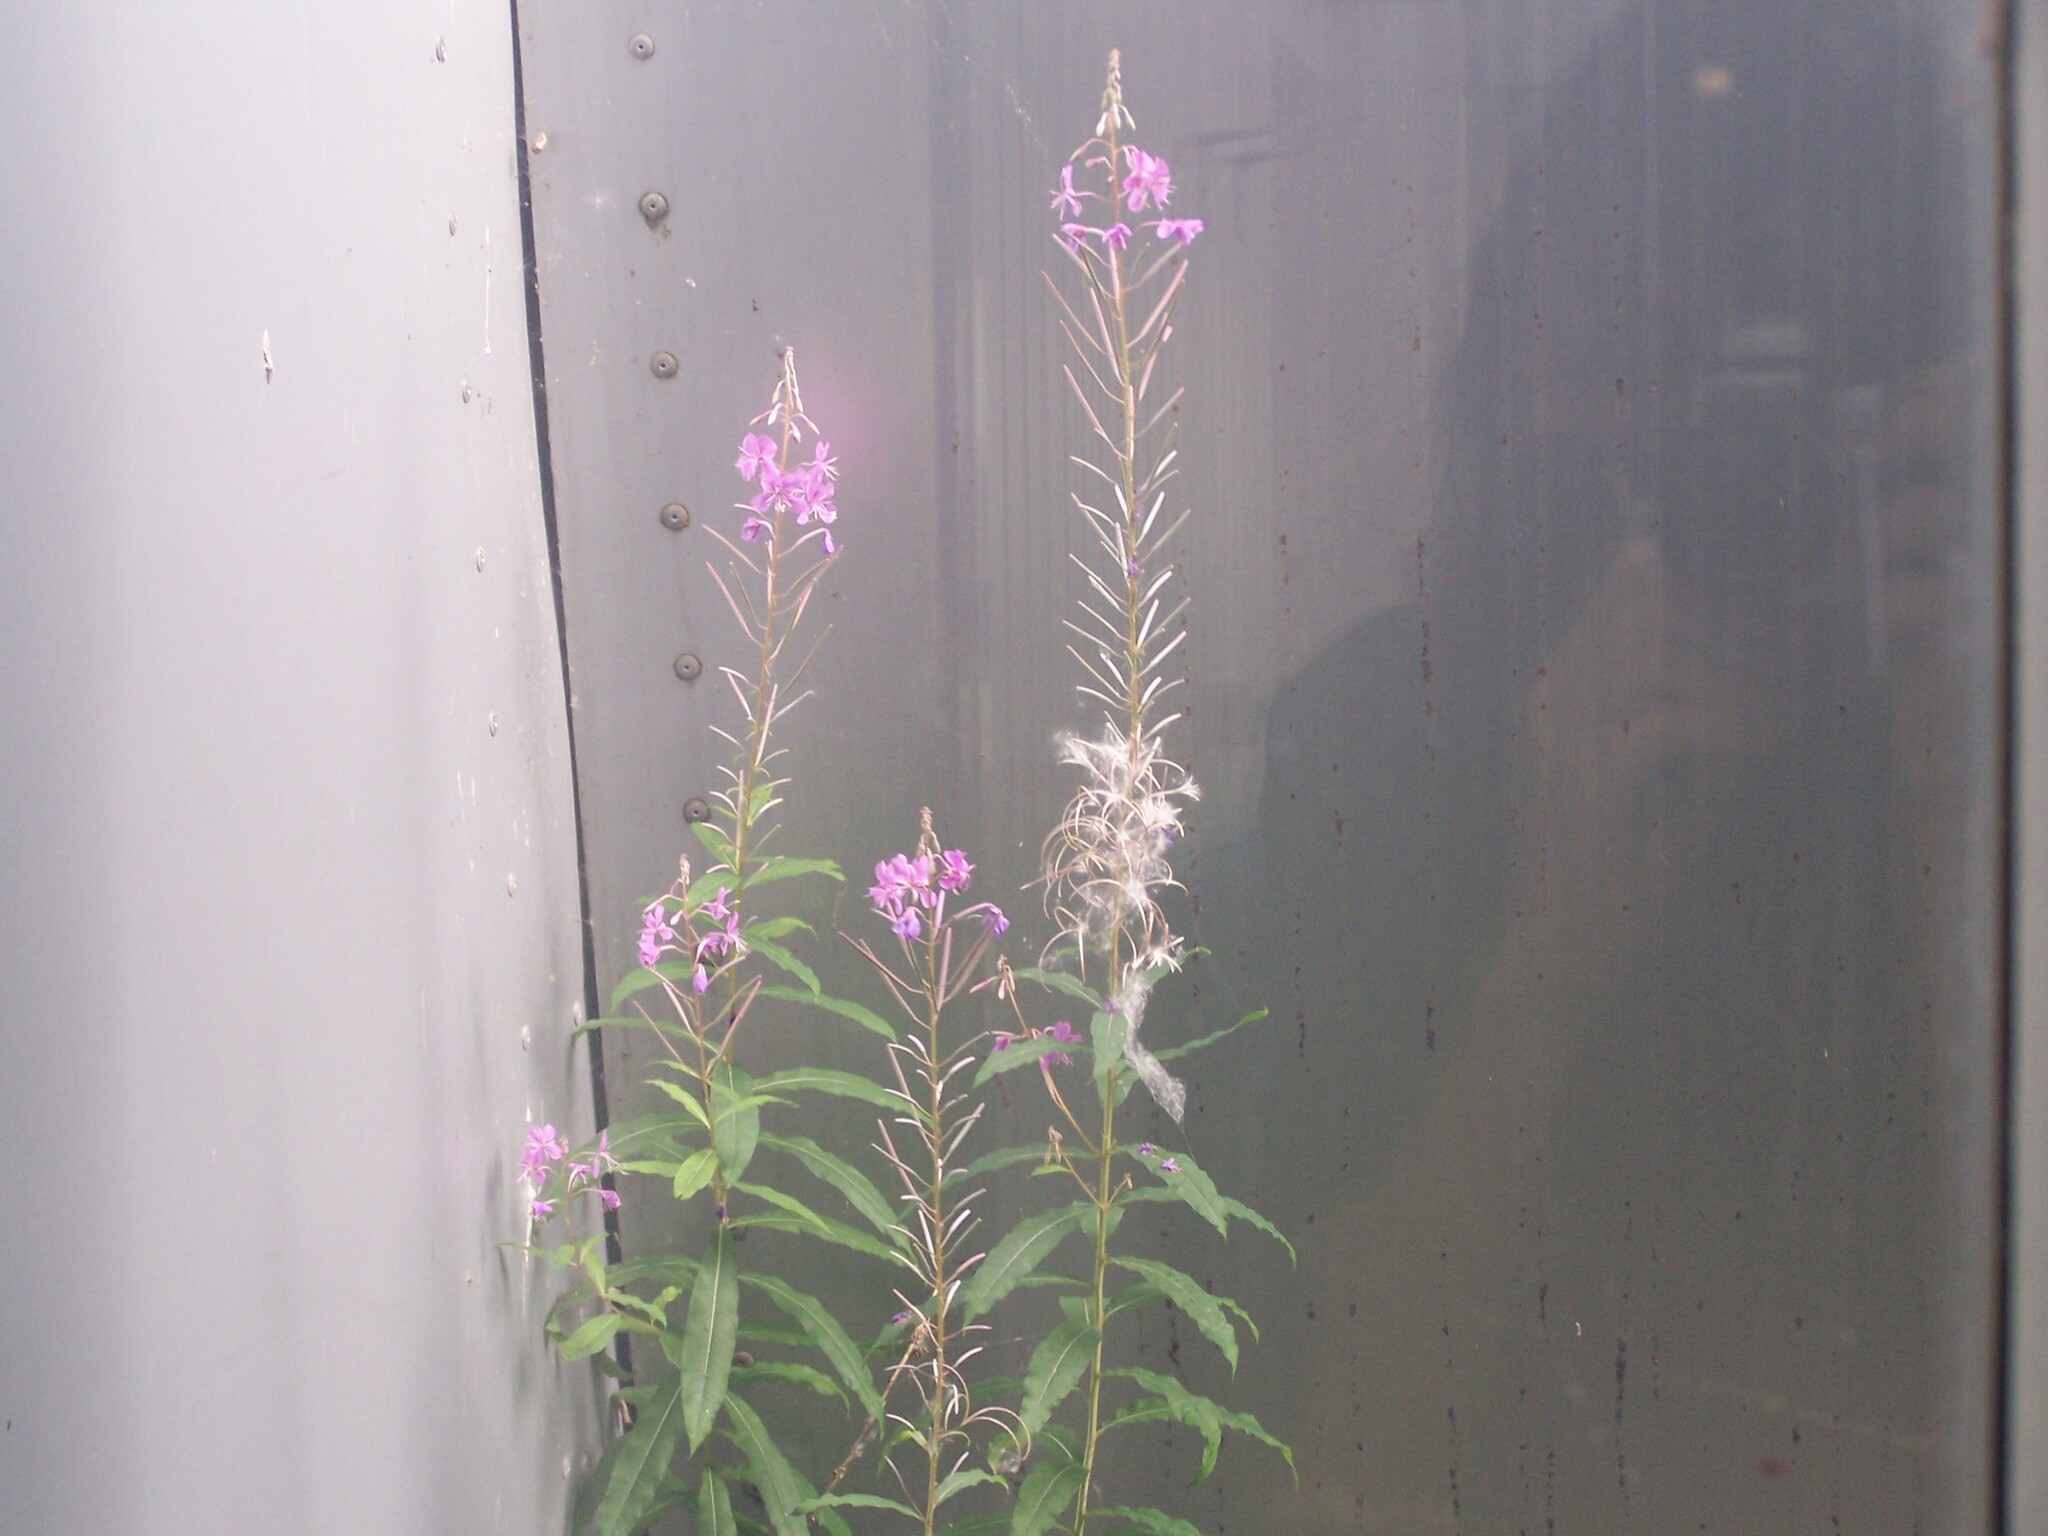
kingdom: Plantae
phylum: Tracheophyta
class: Magnoliopsida
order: Myrtales
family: Onagraceae
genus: Chamaenerion
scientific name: Chamaenerion angustifolium
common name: Fireweed
